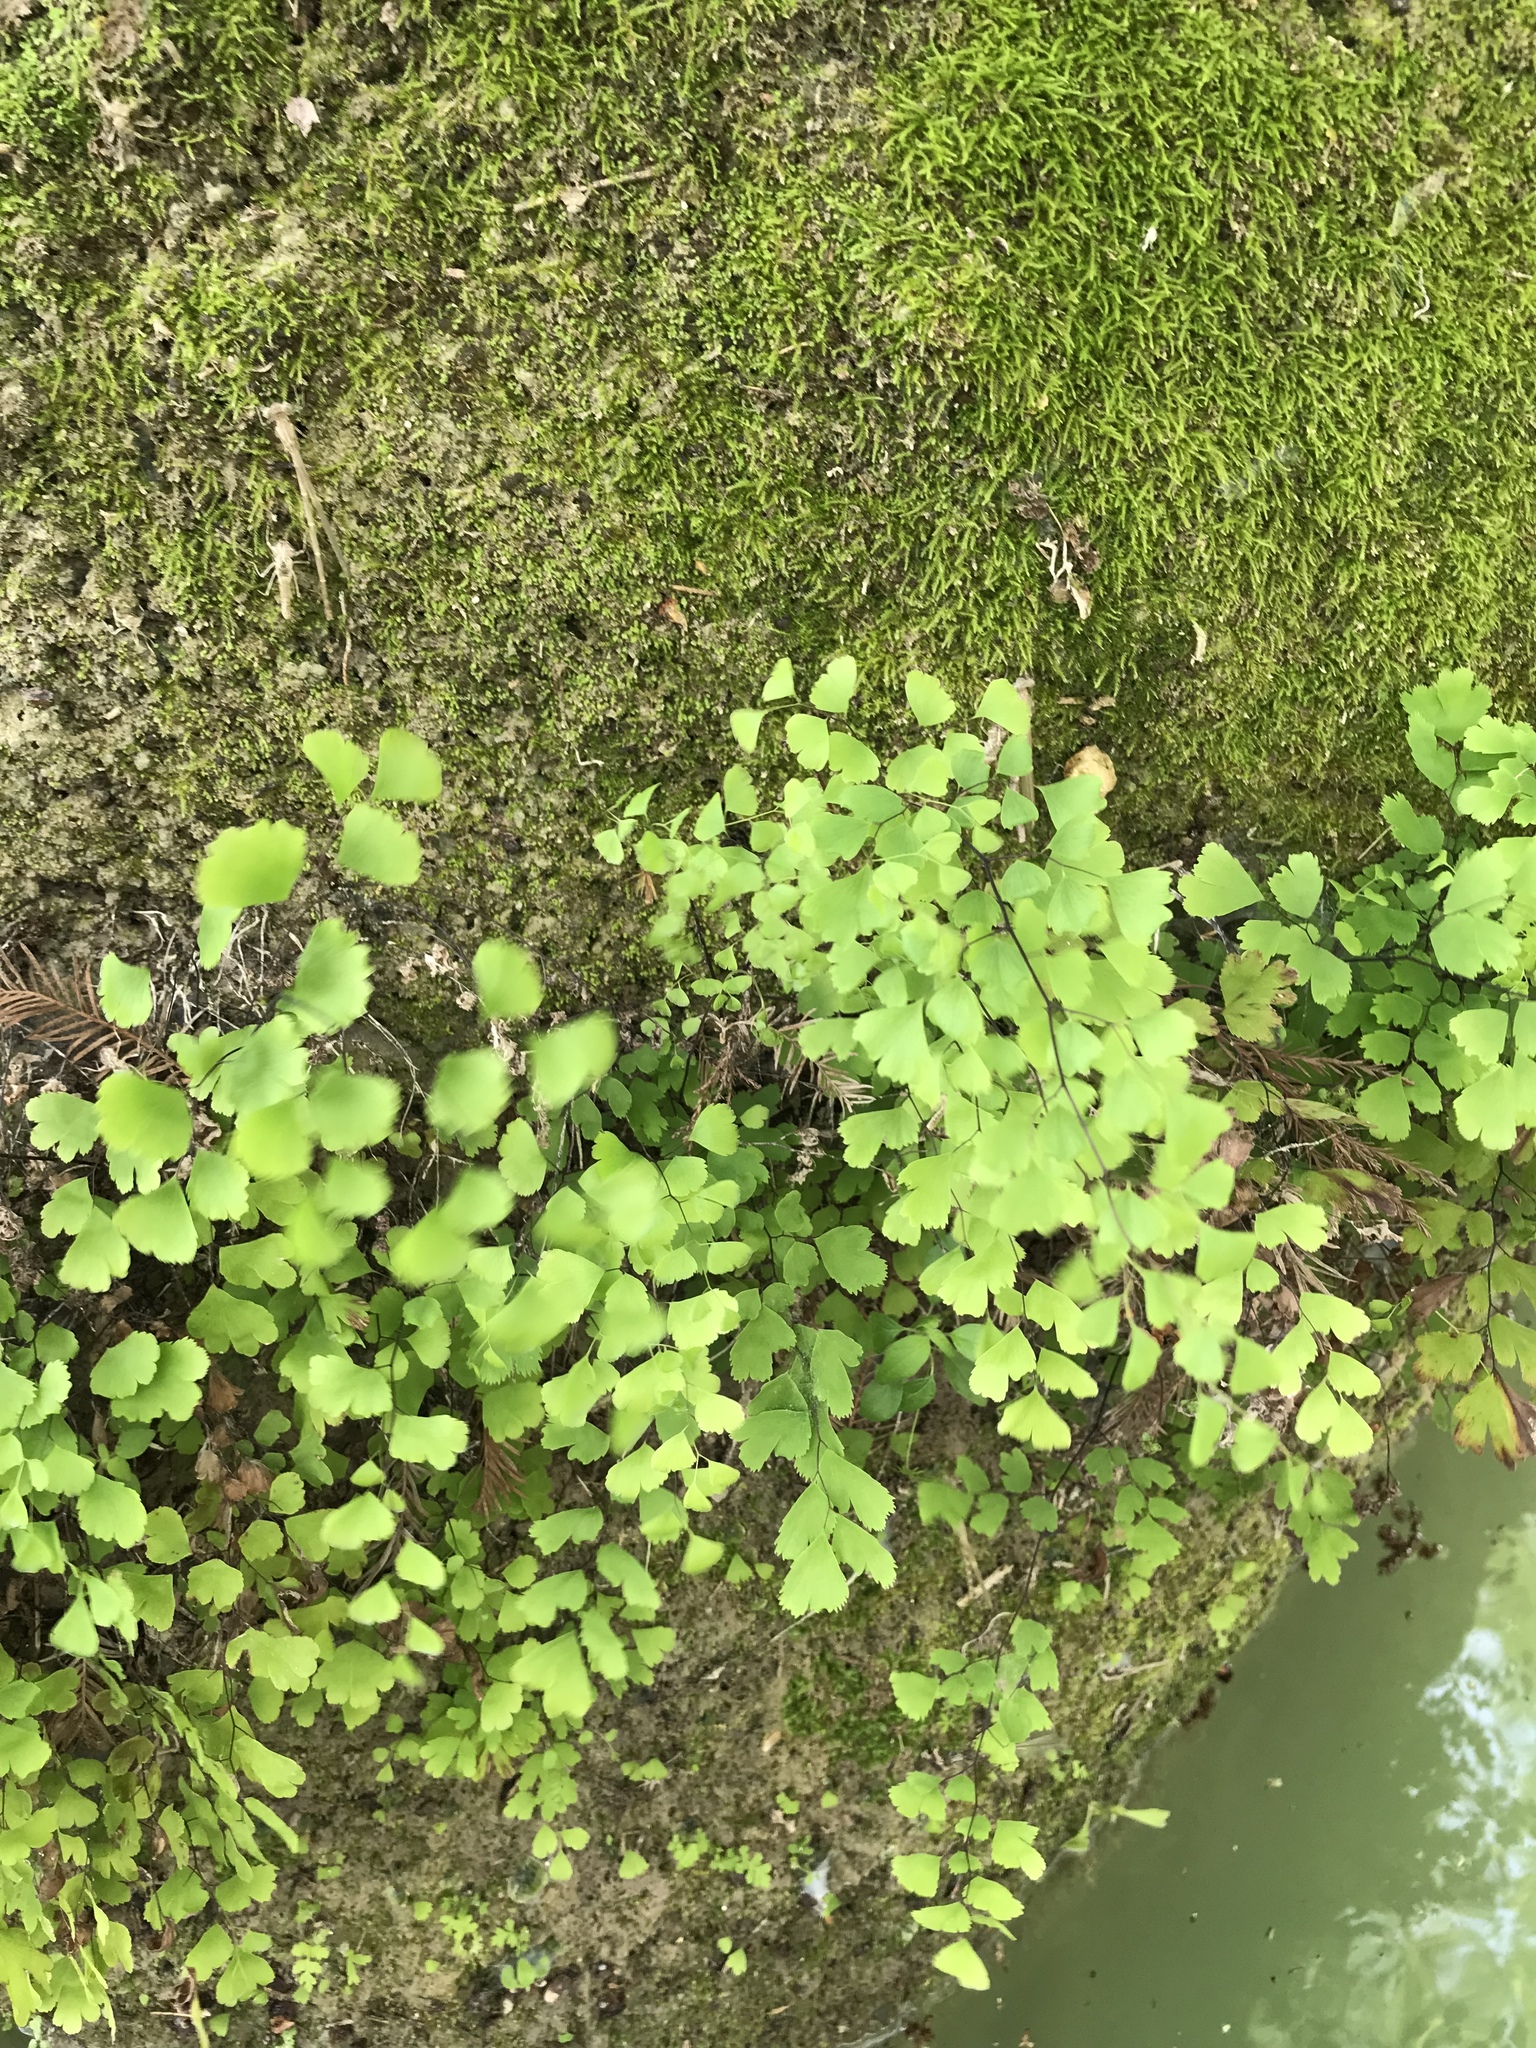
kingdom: Plantae
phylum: Tracheophyta
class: Polypodiopsida
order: Polypodiales
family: Pteridaceae
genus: Adiantum
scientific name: Adiantum capillus-veneris
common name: Maidenhair fern
